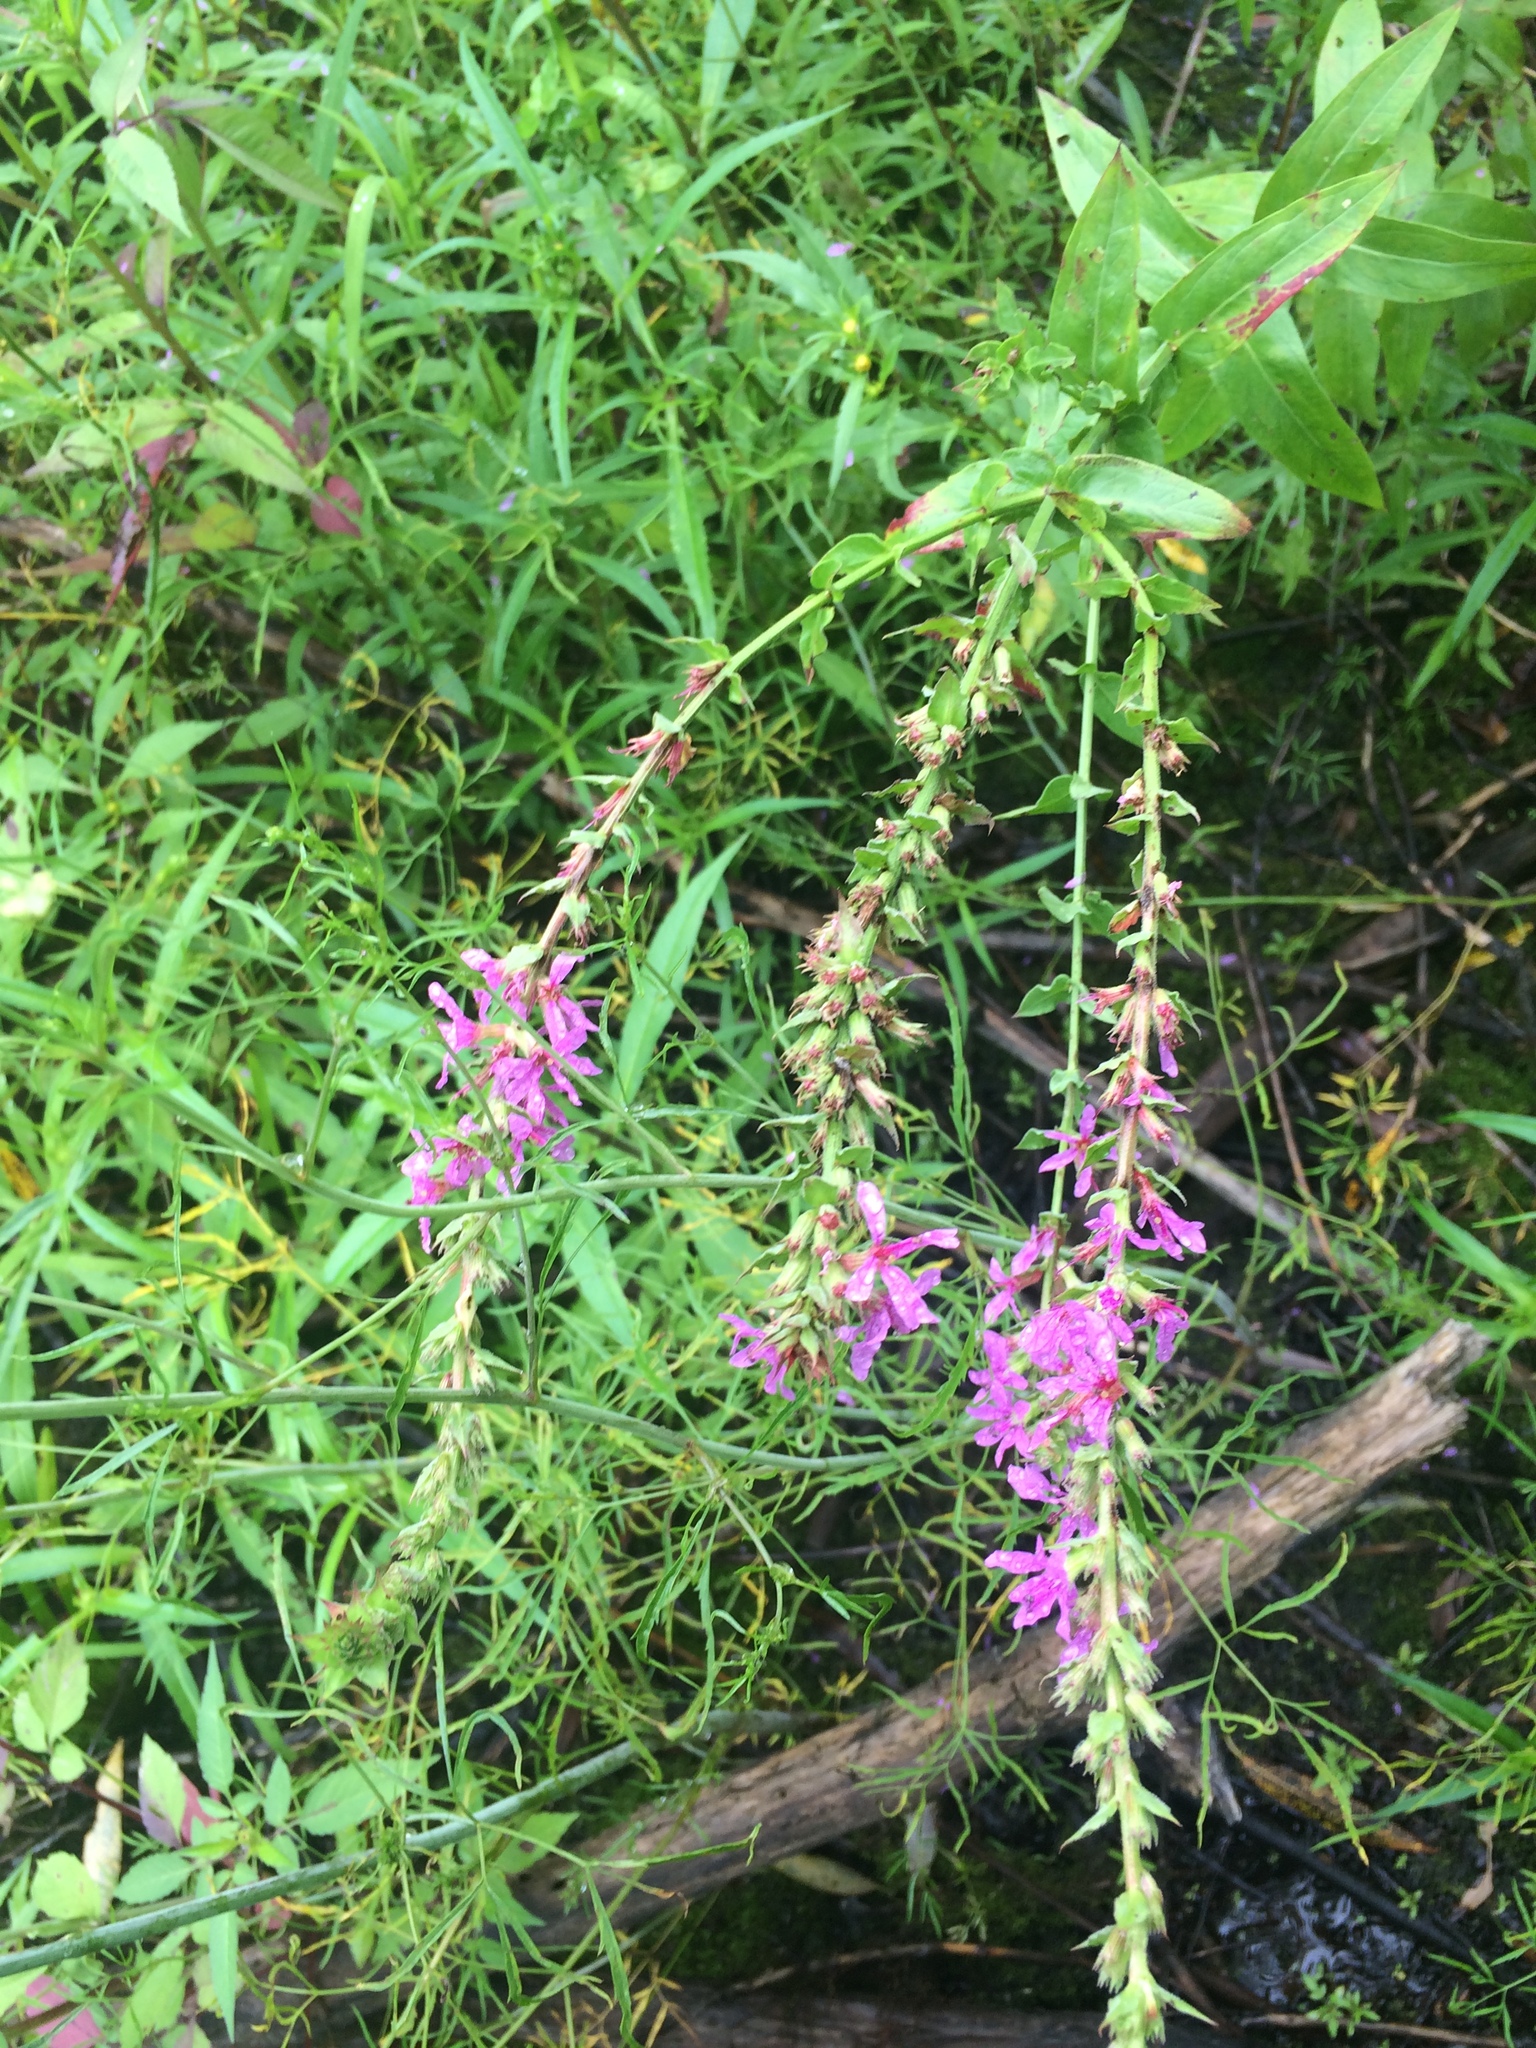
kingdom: Plantae
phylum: Tracheophyta
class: Magnoliopsida
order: Myrtales
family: Lythraceae
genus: Lythrum
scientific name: Lythrum salicaria
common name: Purple loosestrife
